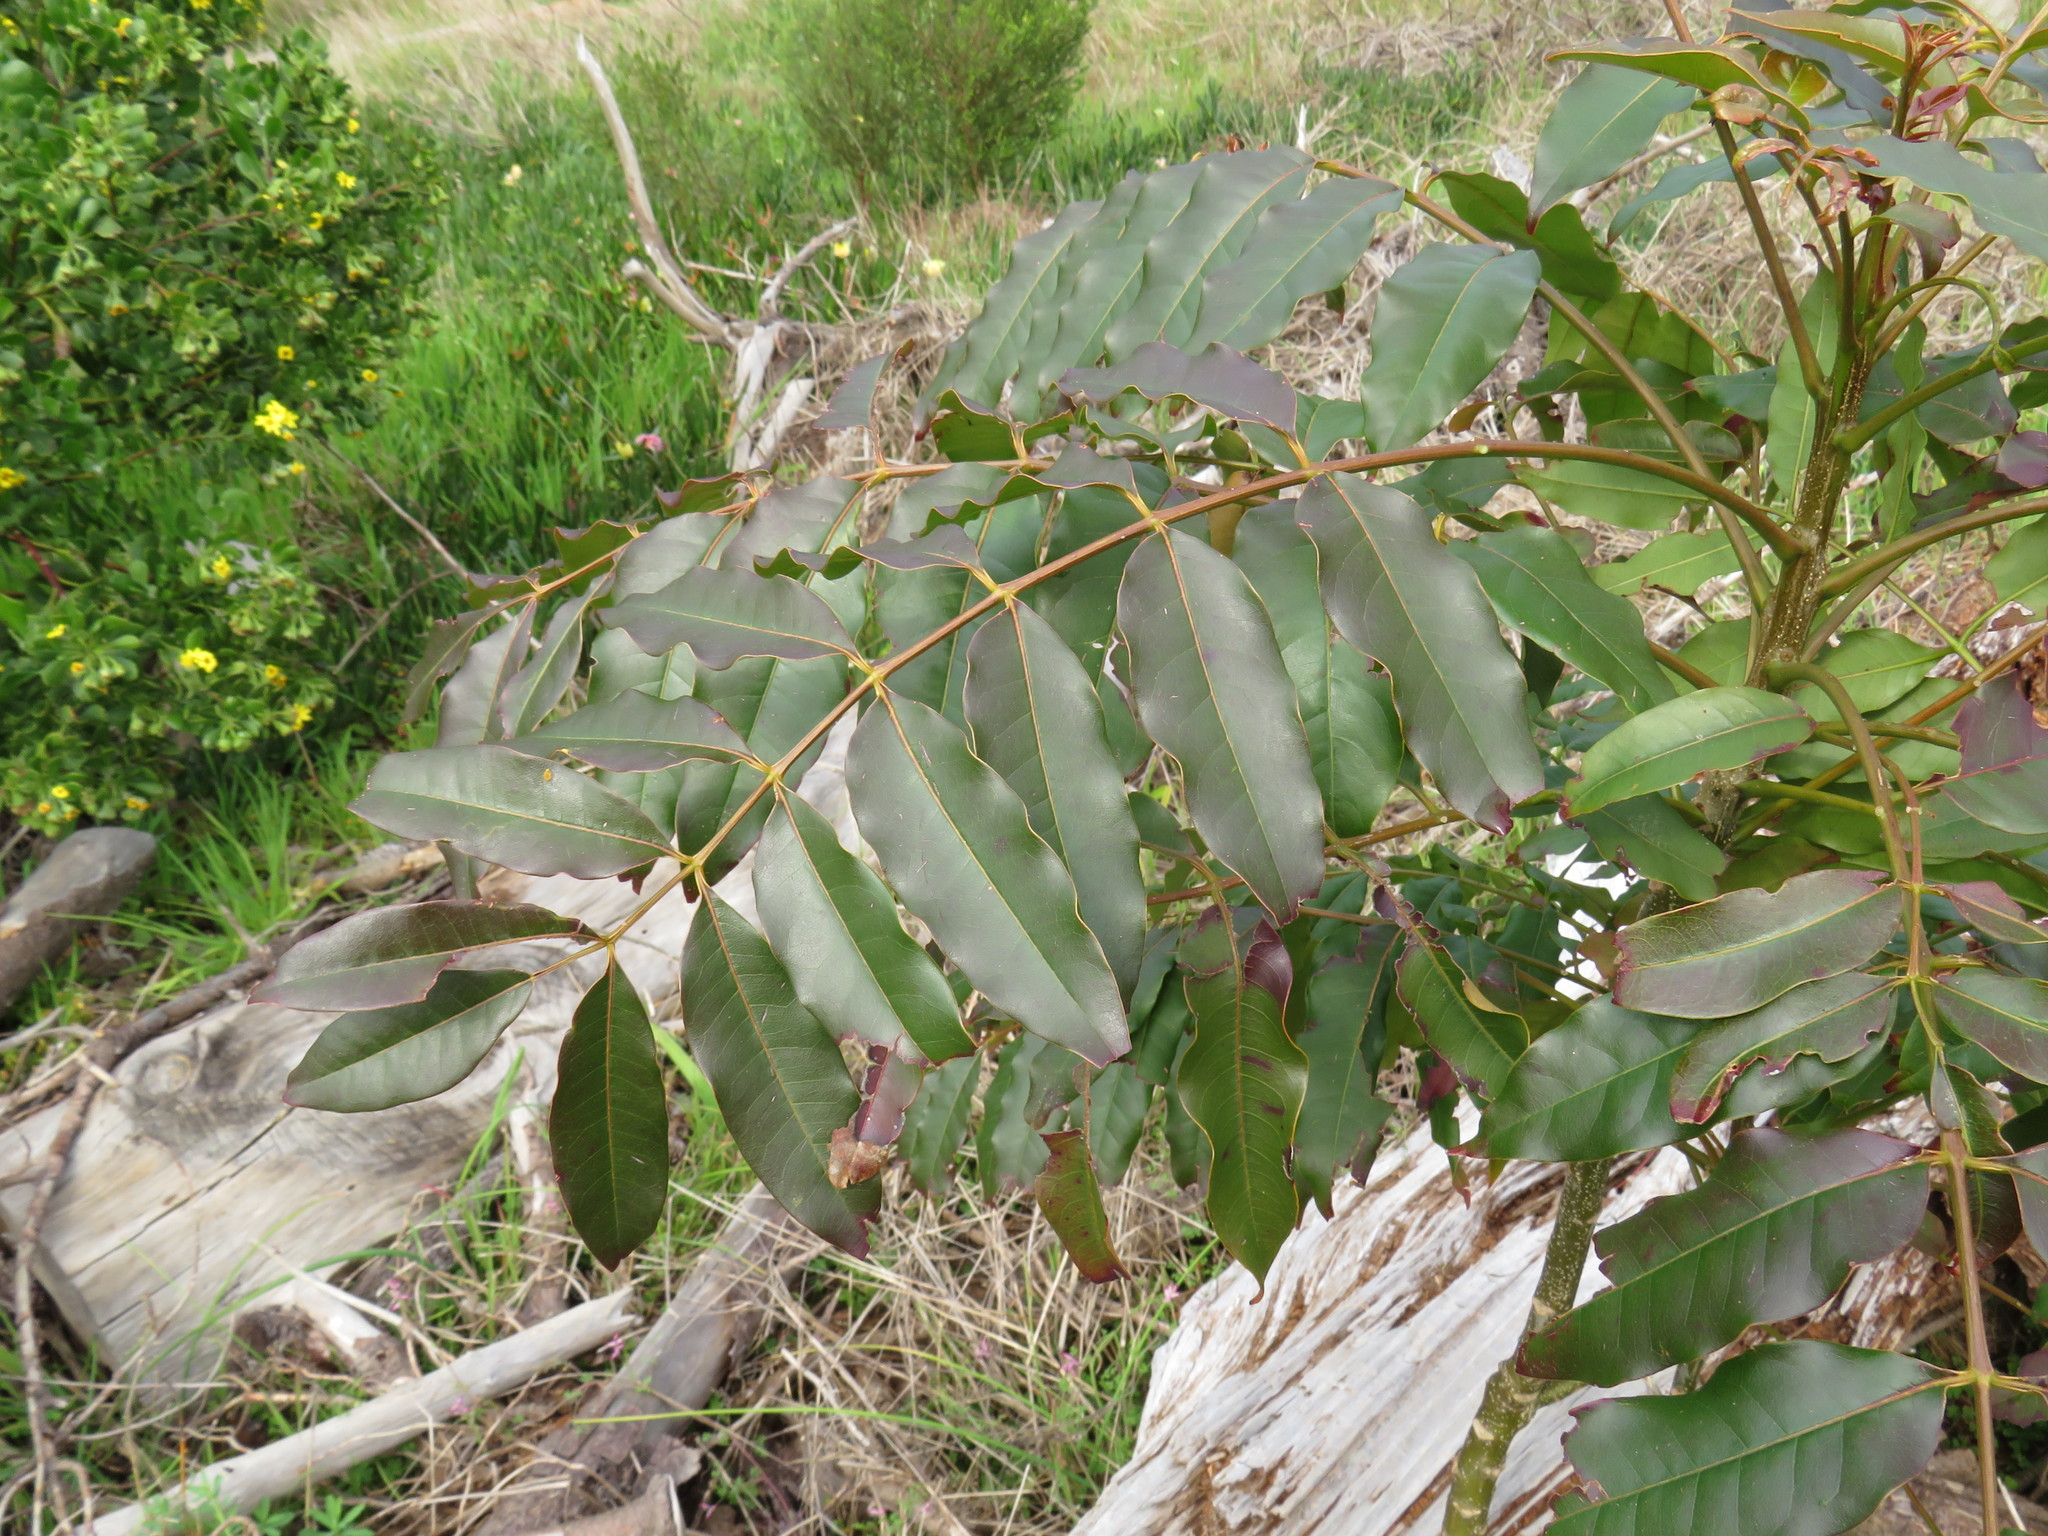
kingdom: Plantae
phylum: Tracheophyta
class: Magnoliopsida
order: Sapindales
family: Meliaceae
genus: Ekebergia
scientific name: Ekebergia capensis
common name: Cape-ash
